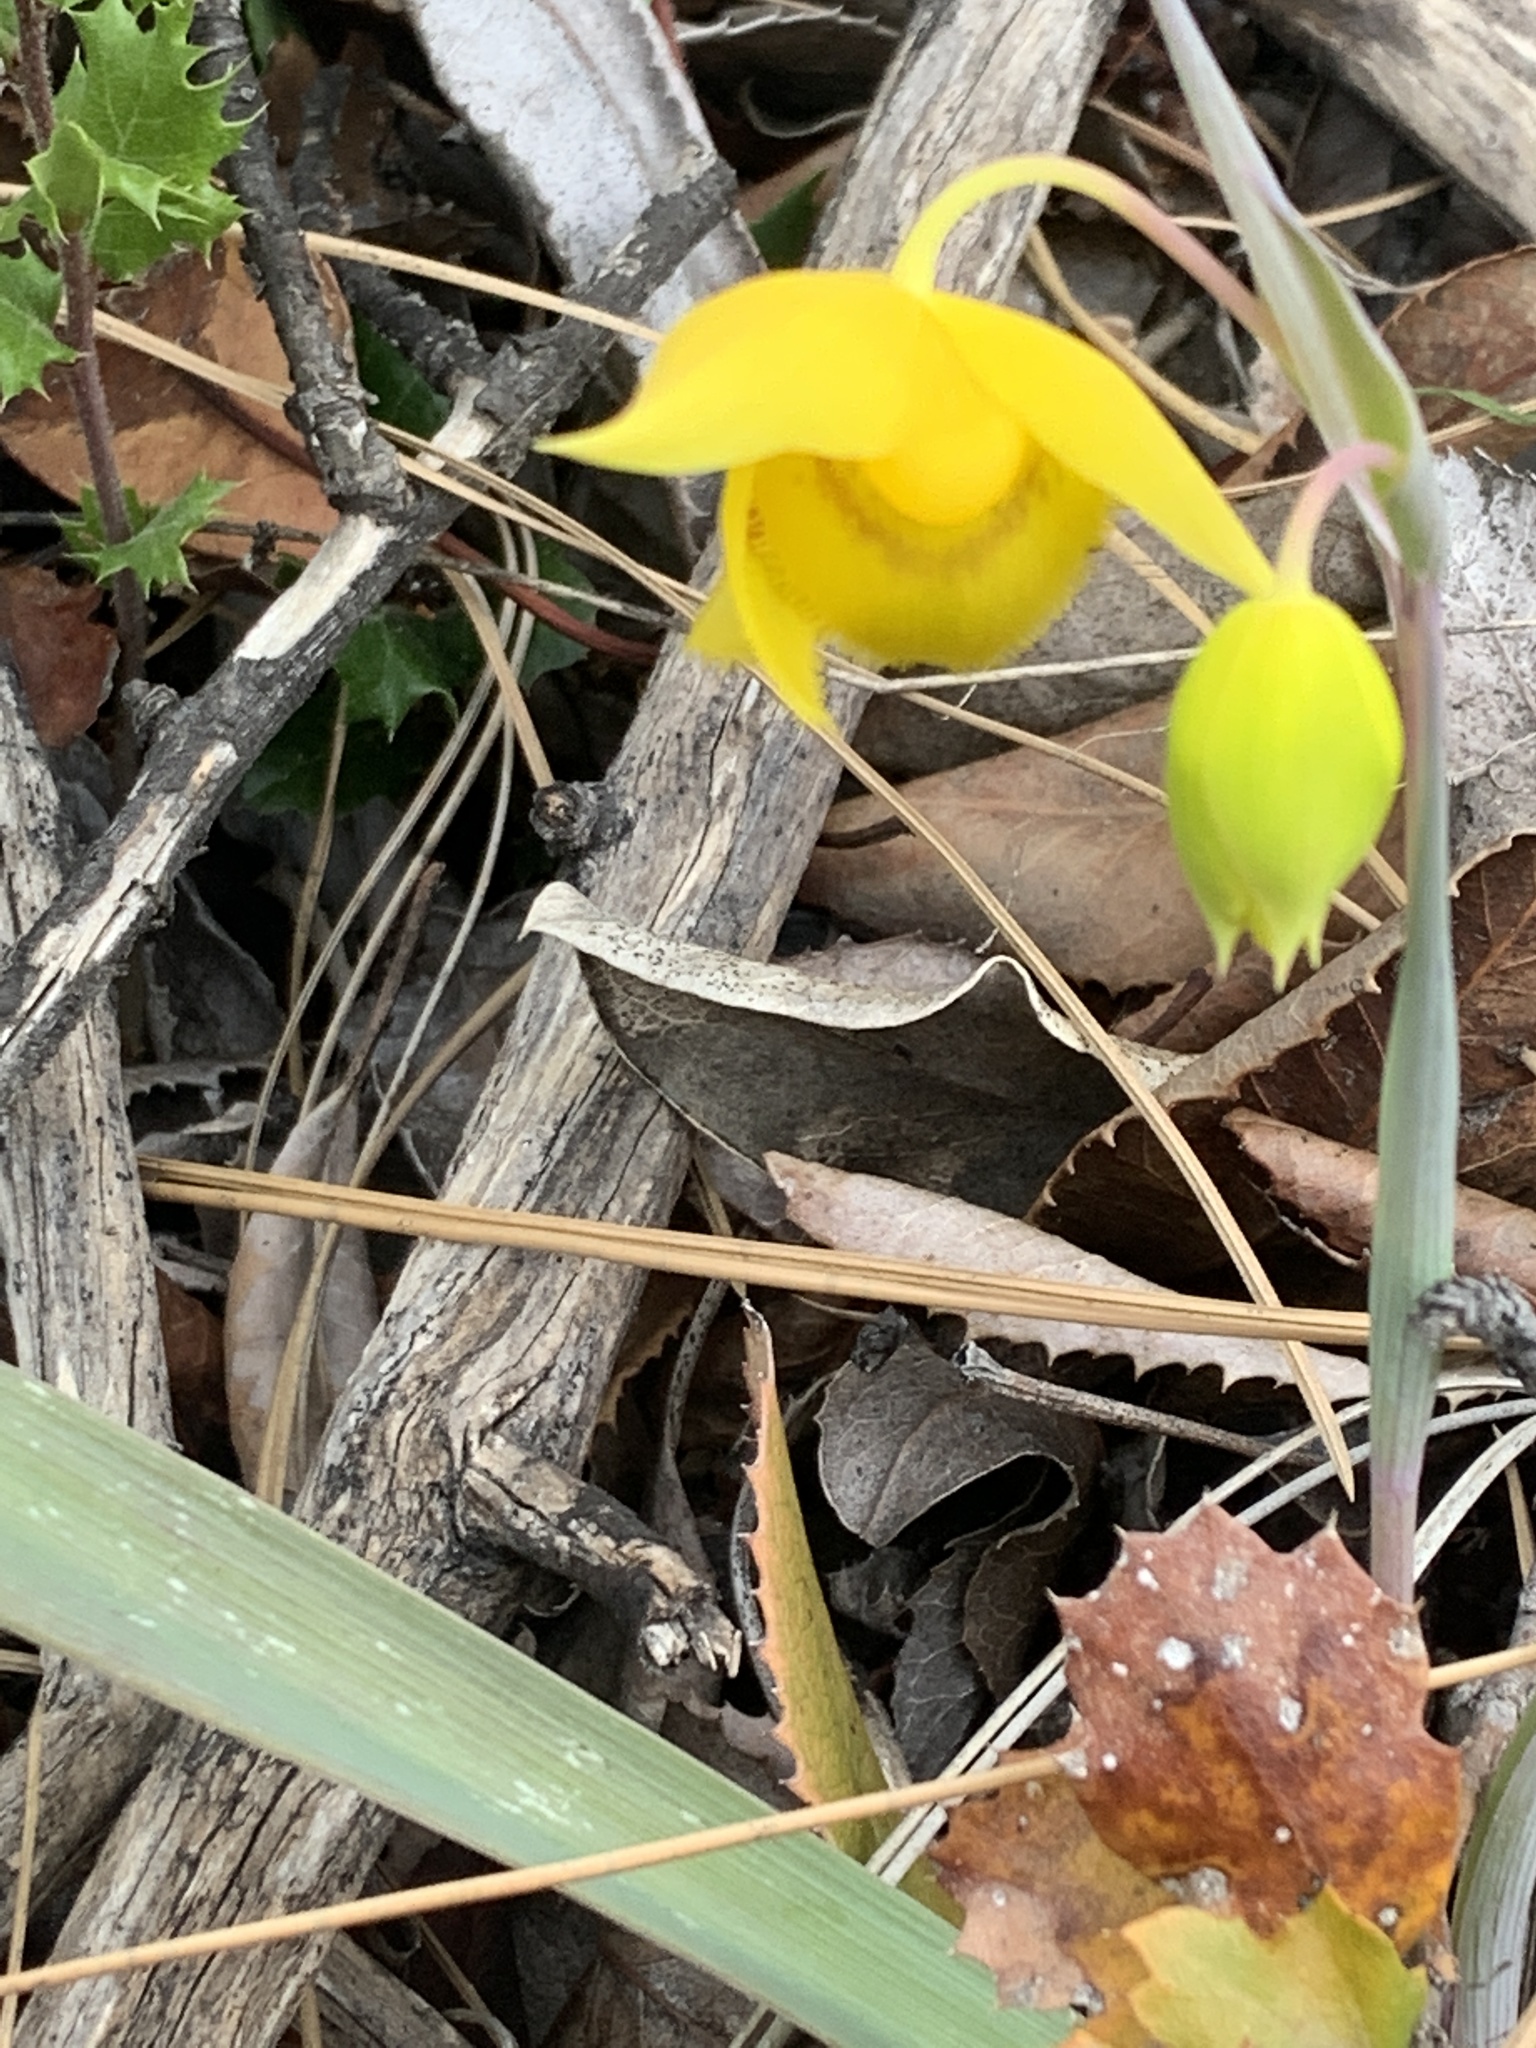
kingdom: Plantae
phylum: Tracheophyta
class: Liliopsida
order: Liliales
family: Liliaceae
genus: Calochortus
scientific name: Calochortus amabilis
